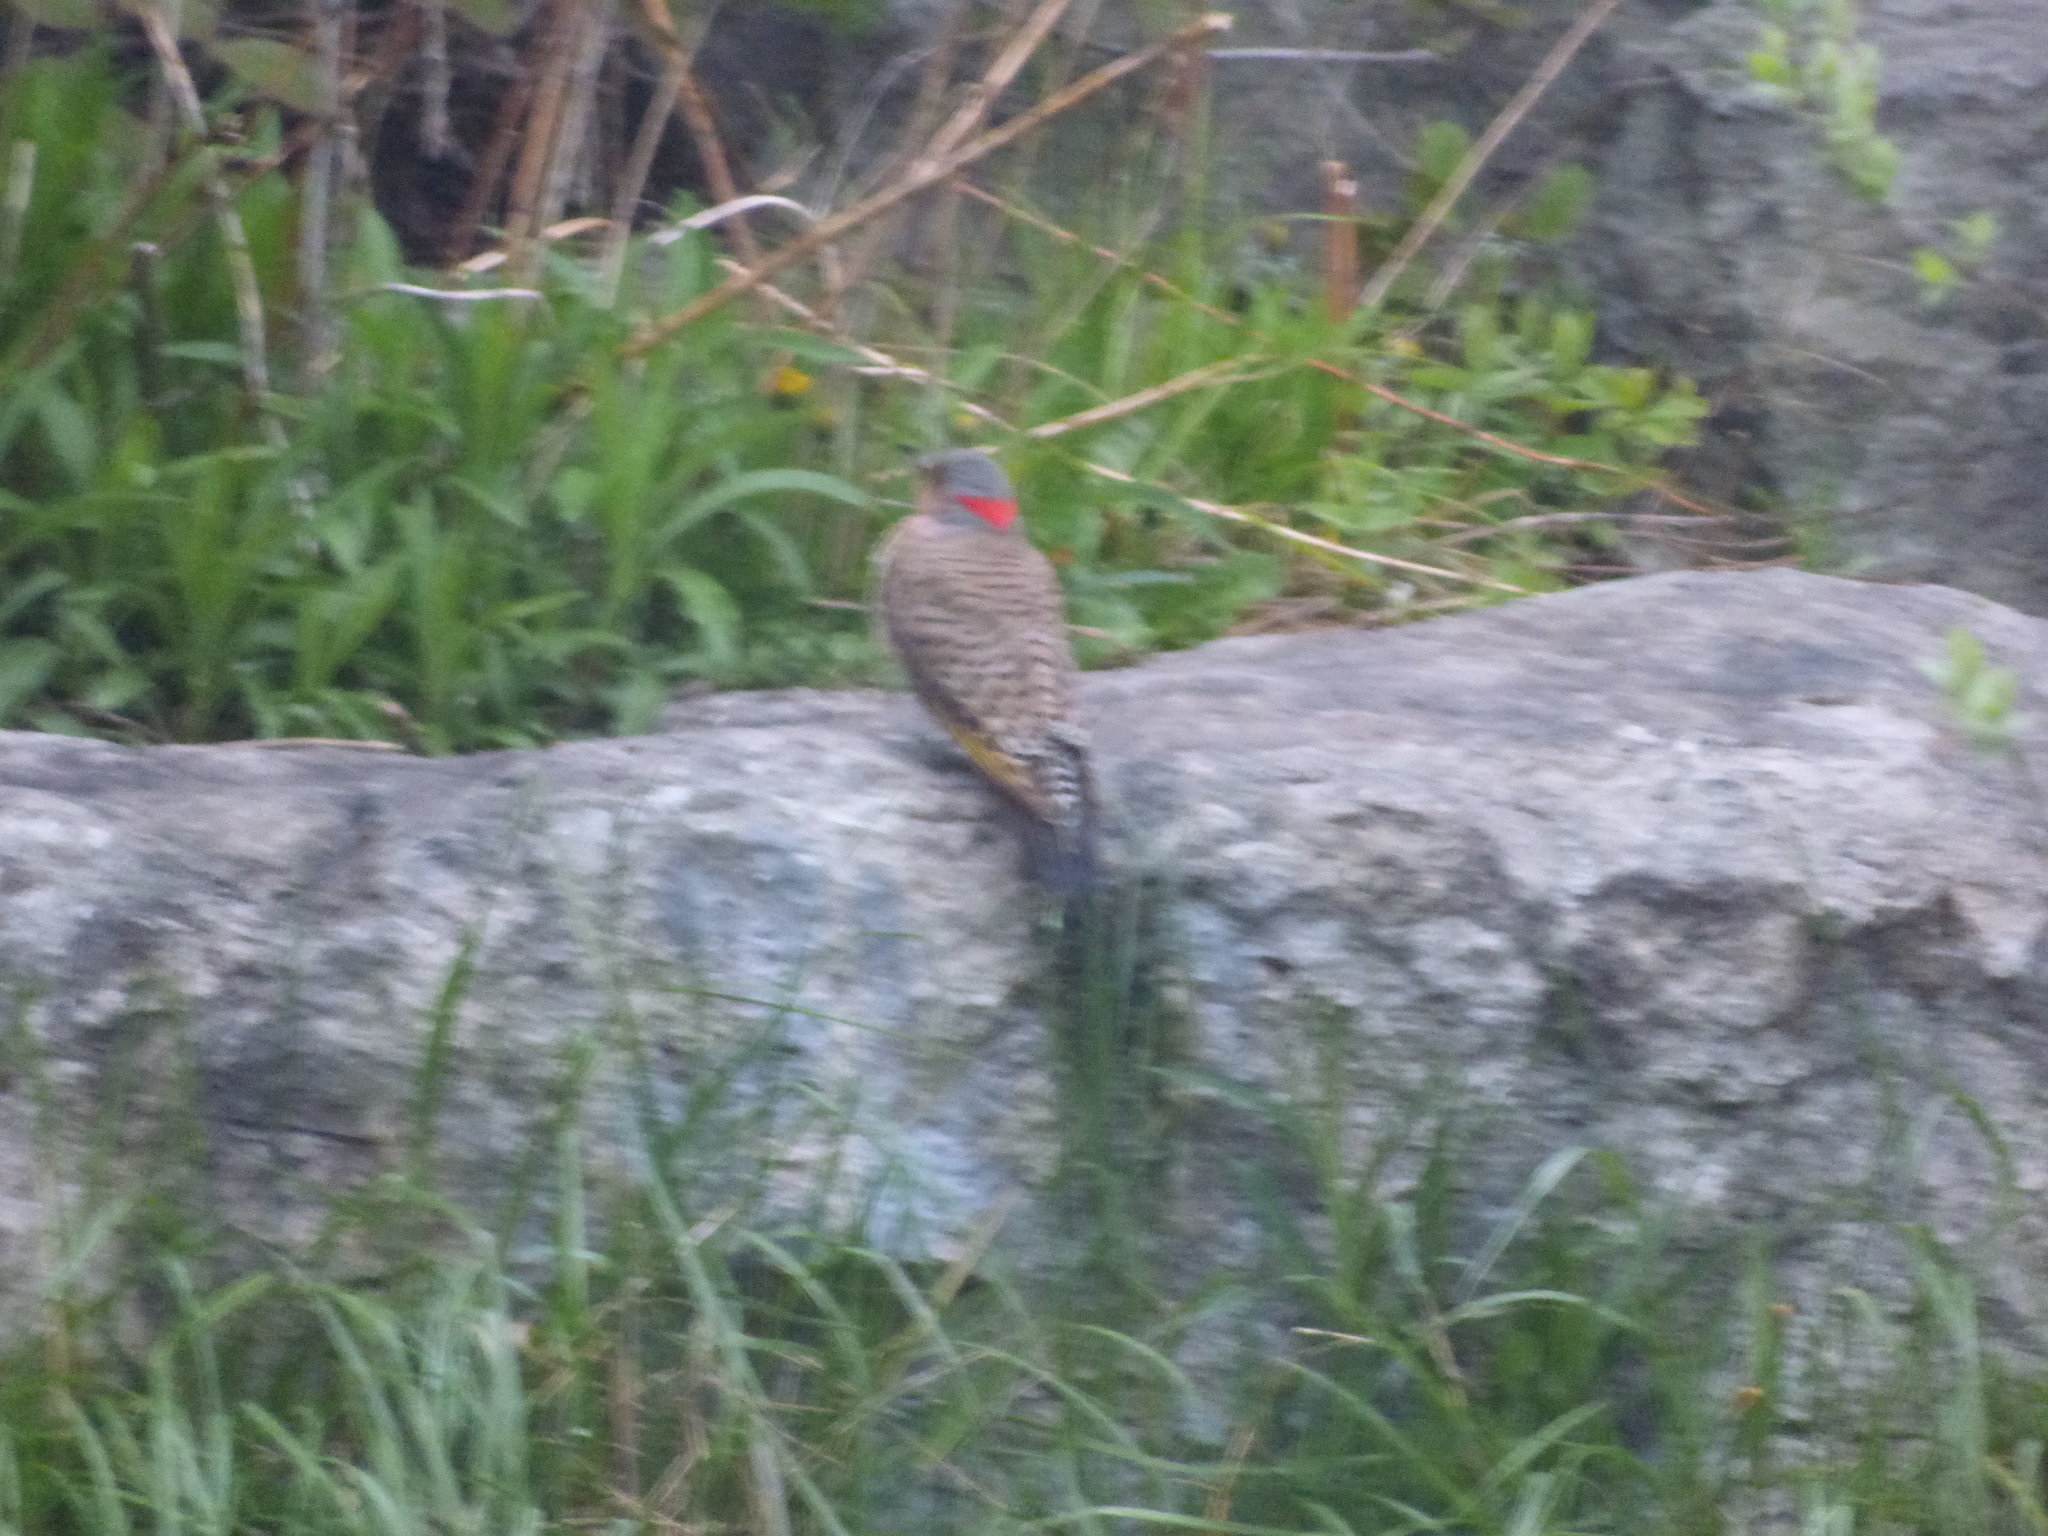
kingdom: Animalia
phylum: Chordata
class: Aves
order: Piciformes
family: Picidae
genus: Colaptes
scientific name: Colaptes auratus
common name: Northern flicker
